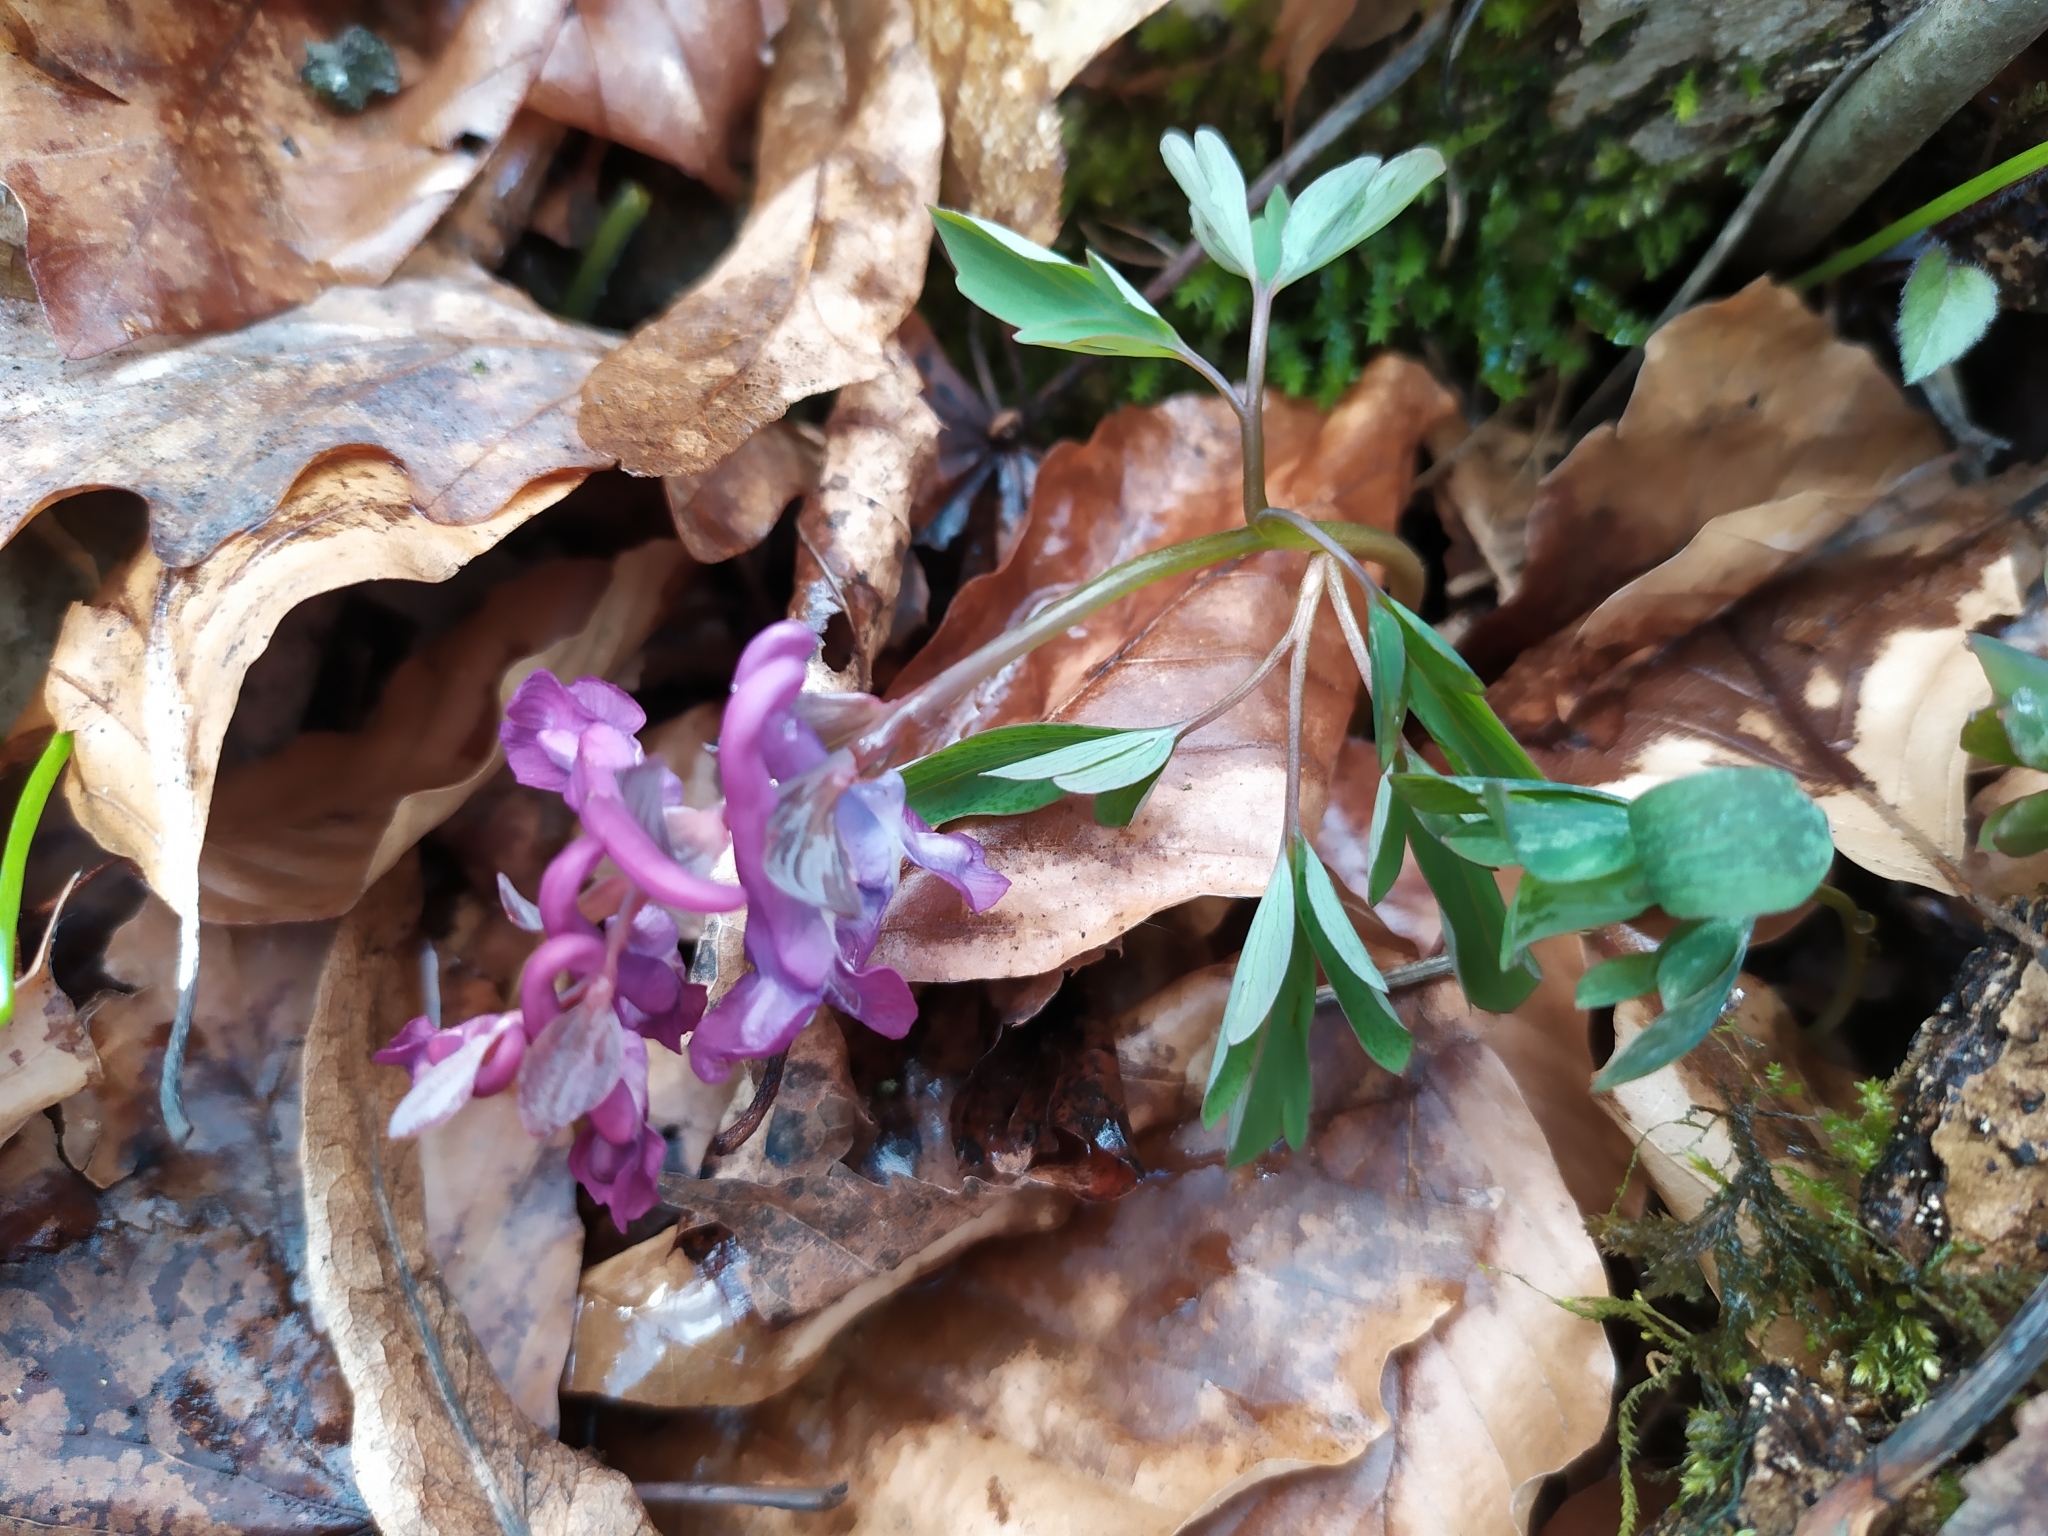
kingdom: Plantae
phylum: Tracheophyta
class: Magnoliopsida
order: Ranunculales
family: Papaveraceae
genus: Corydalis
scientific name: Corydalis cava
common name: Hollowroot
